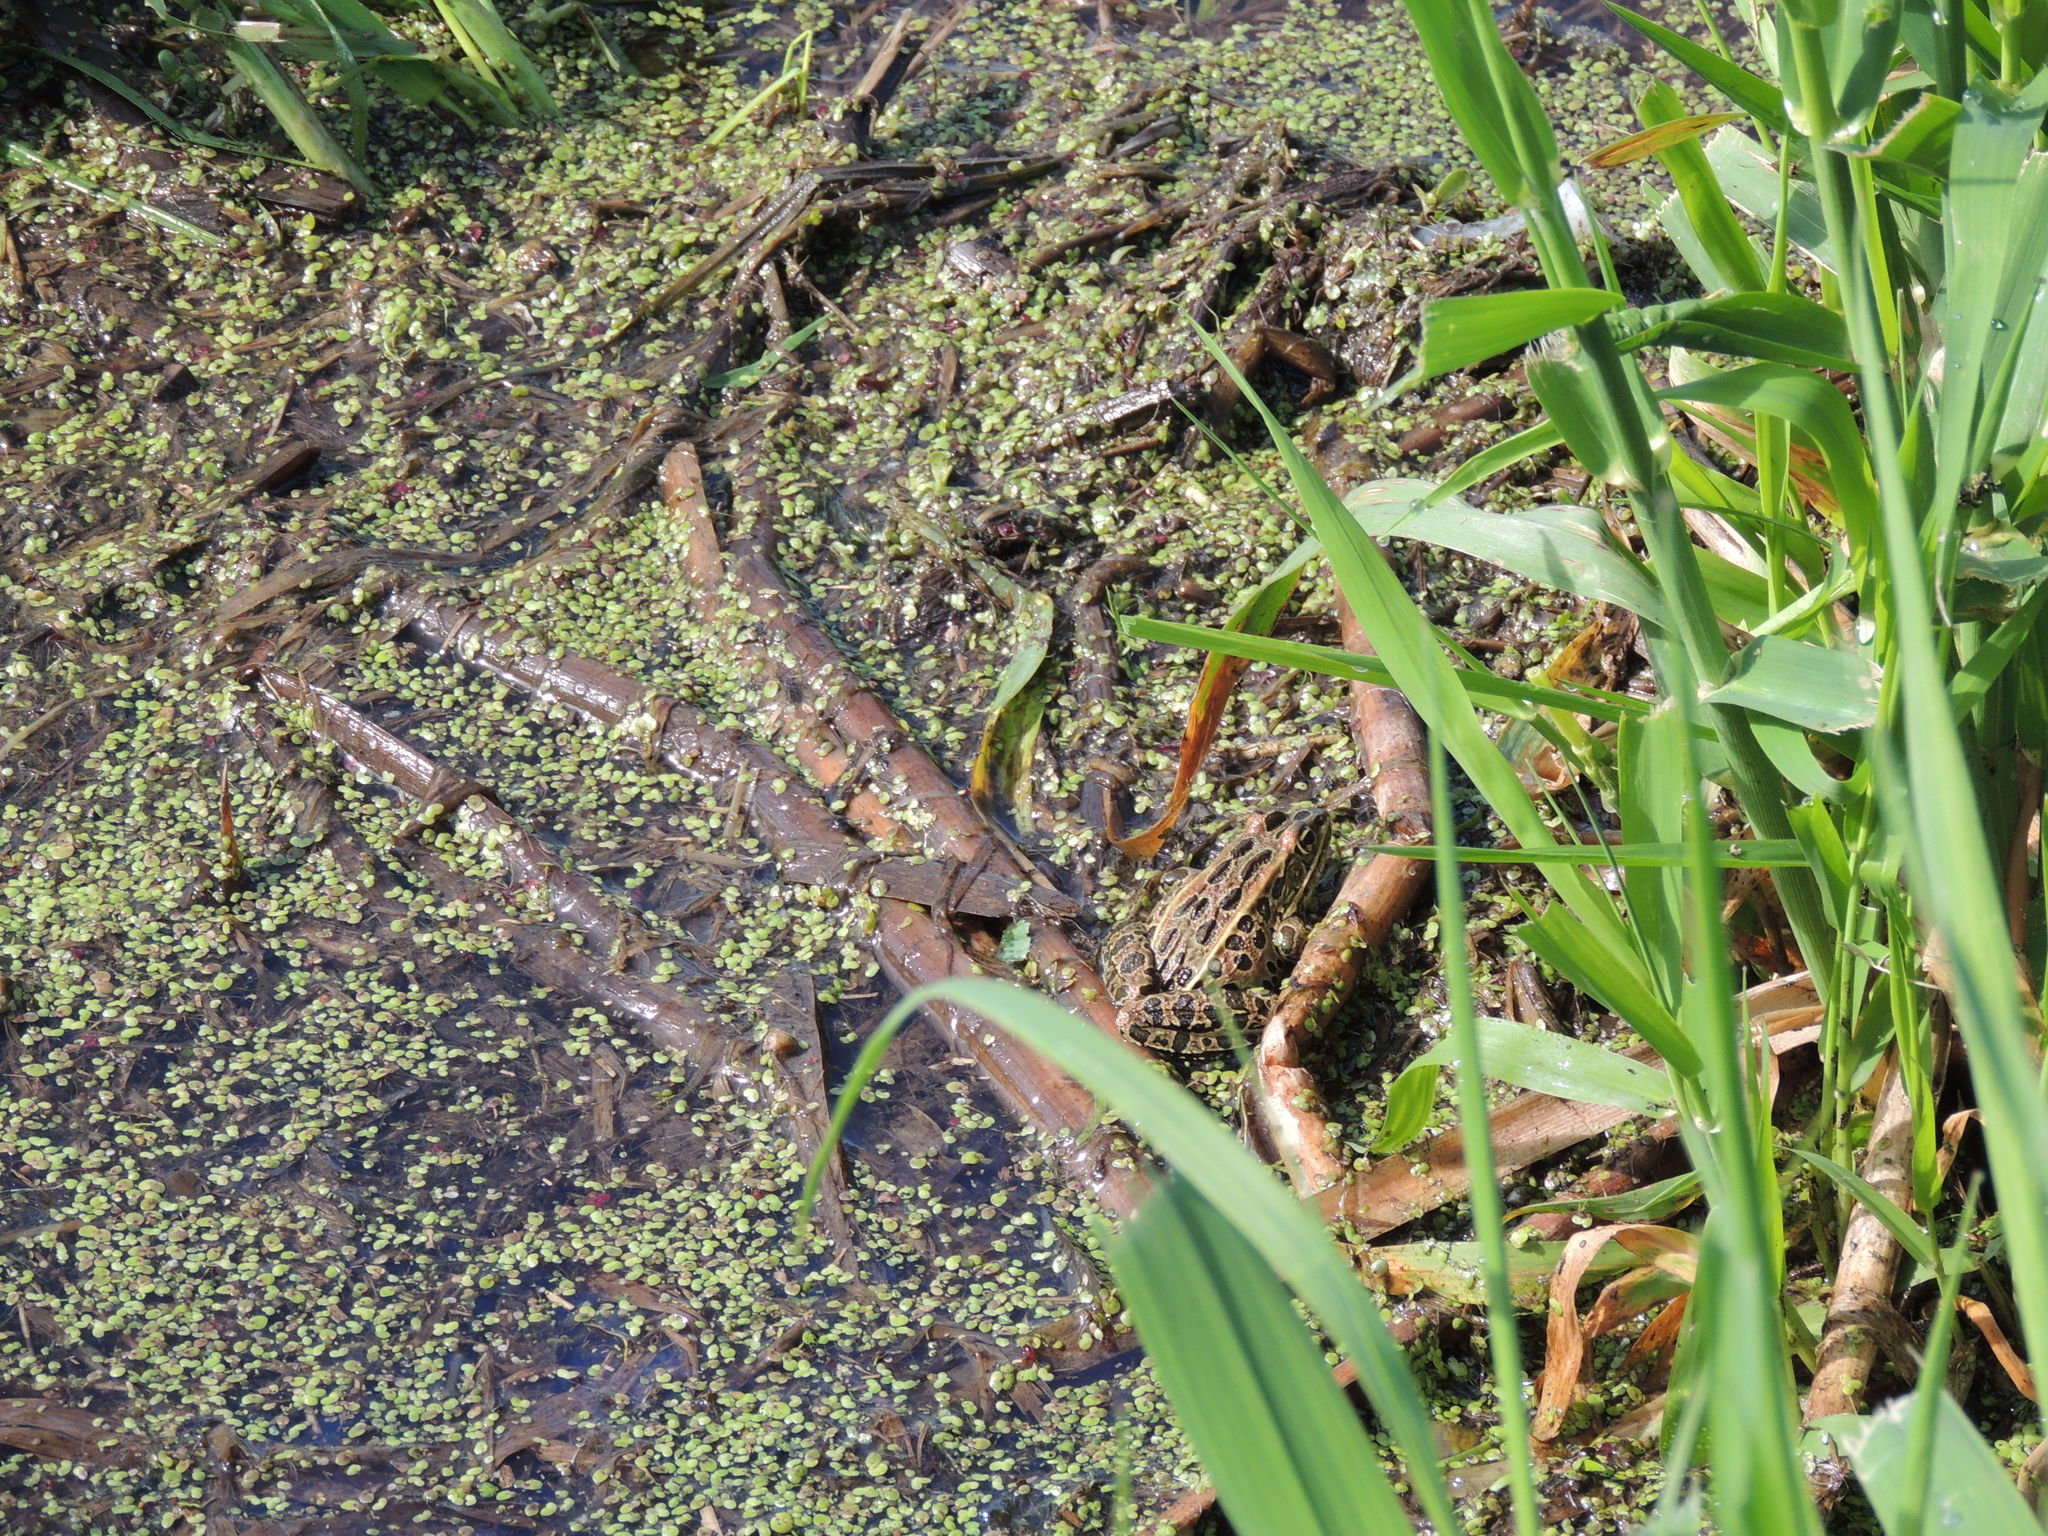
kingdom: Animalia
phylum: Chordata
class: Amphibia
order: Anura
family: Ranidae
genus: Lithobates
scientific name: Lithobates pipiens
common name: Northern leopard frog
